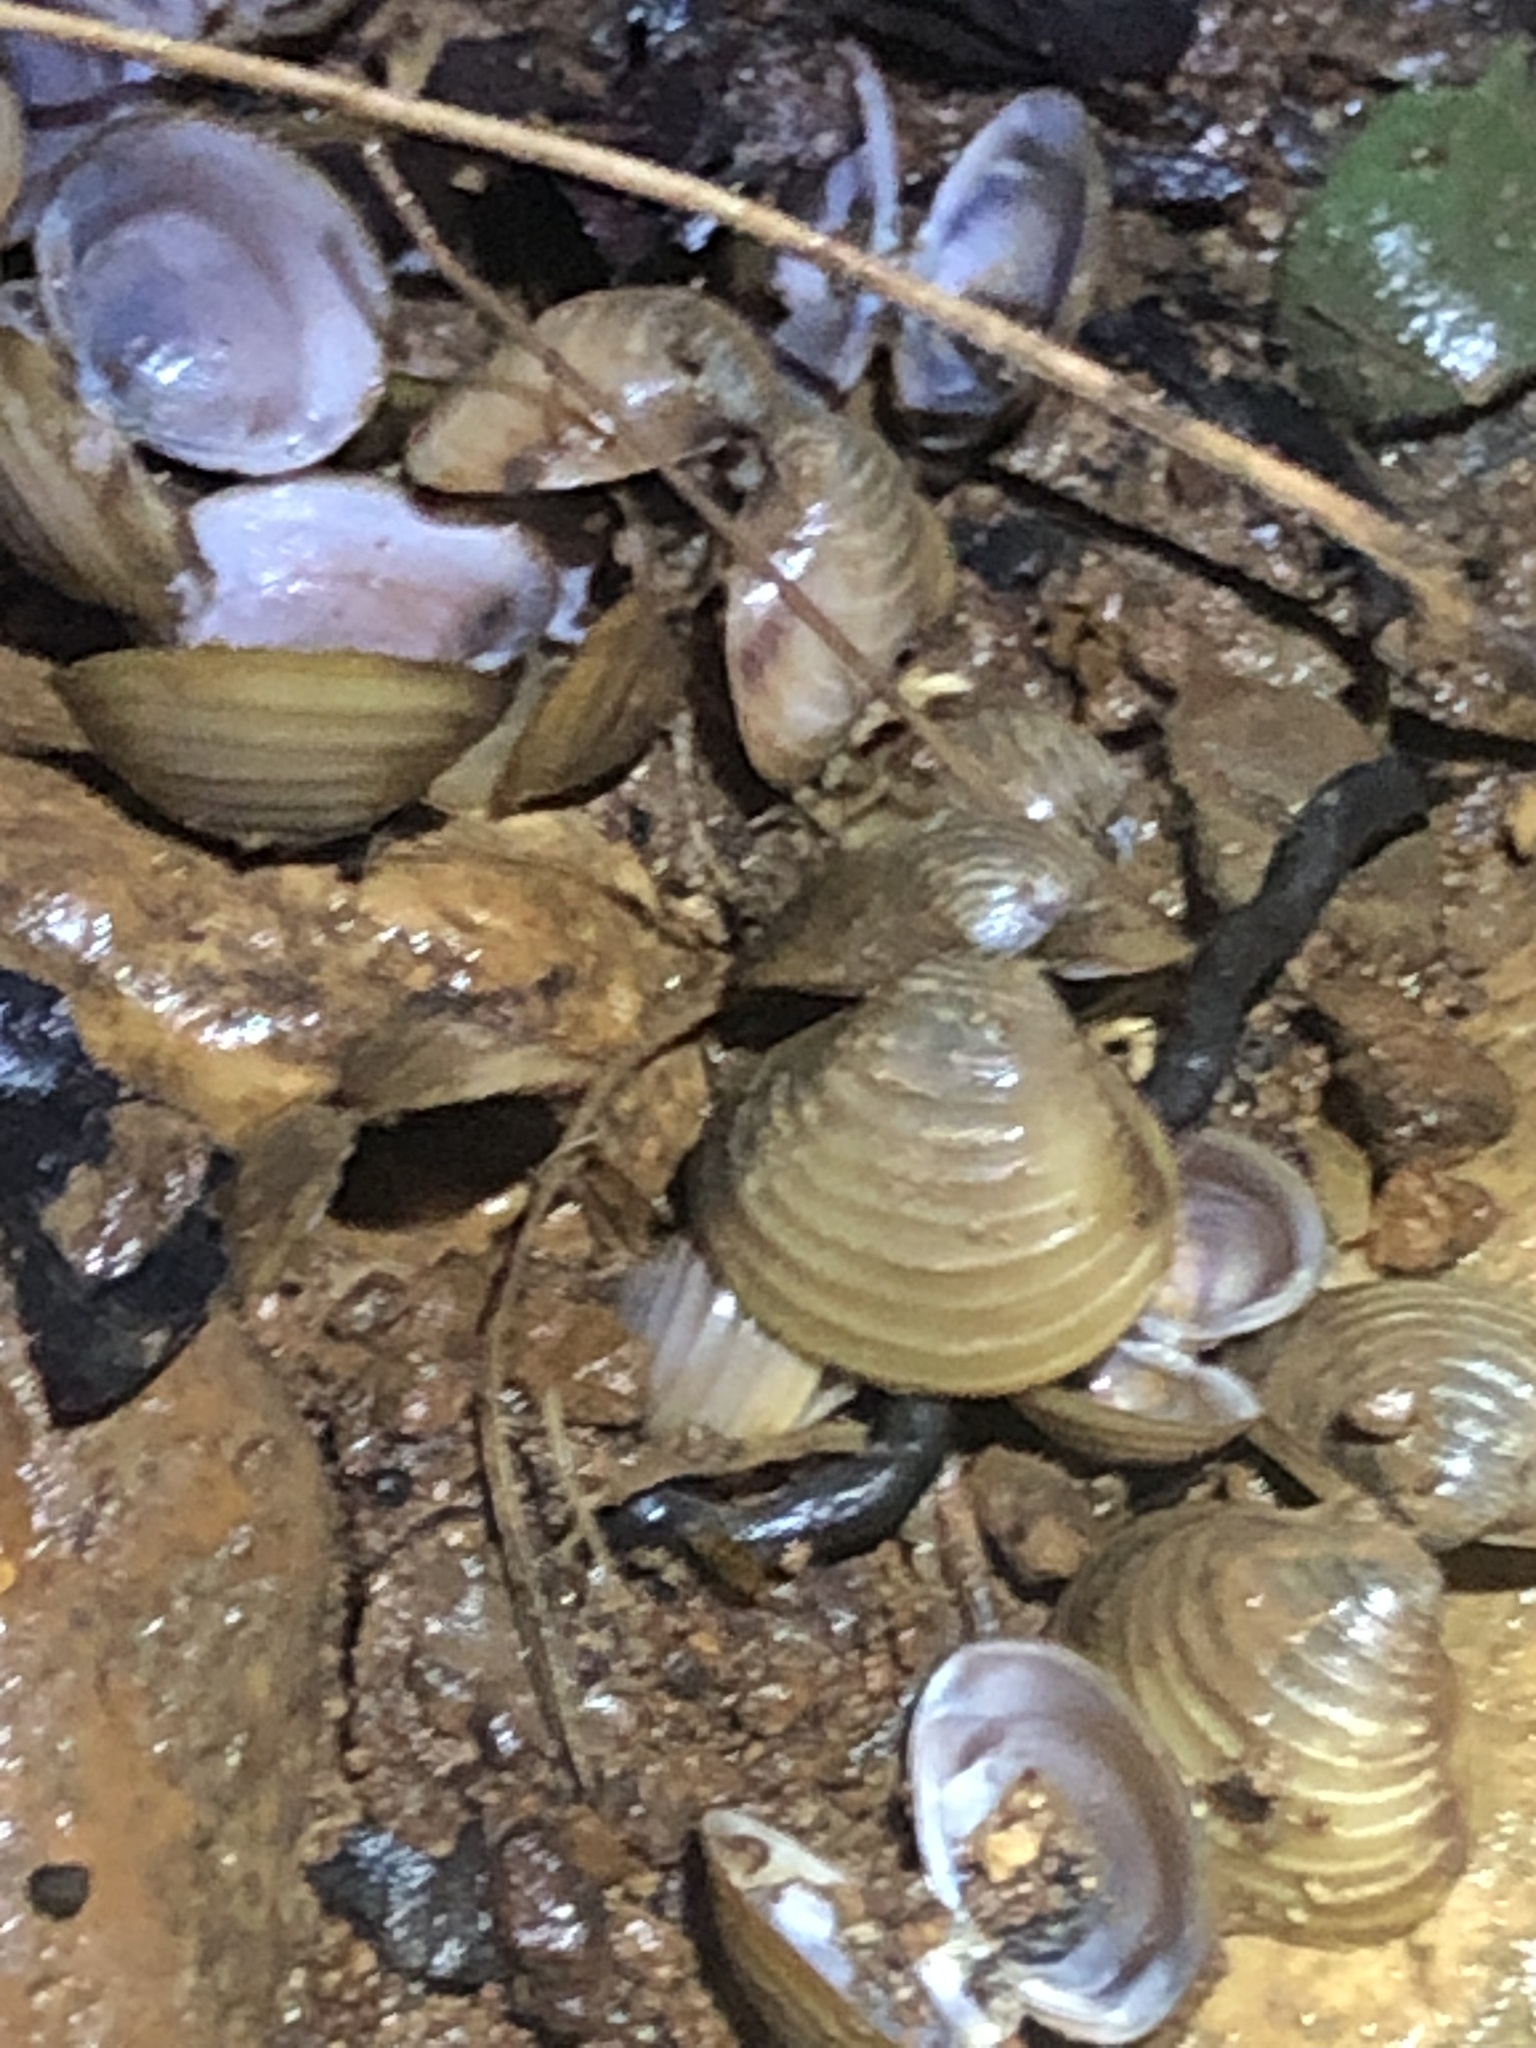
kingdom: Animalia
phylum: Mollusca
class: Bivalvia
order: Venerida
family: Cyrenidae
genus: Corbicula
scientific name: Corbicula fluminea
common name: Asian clam
